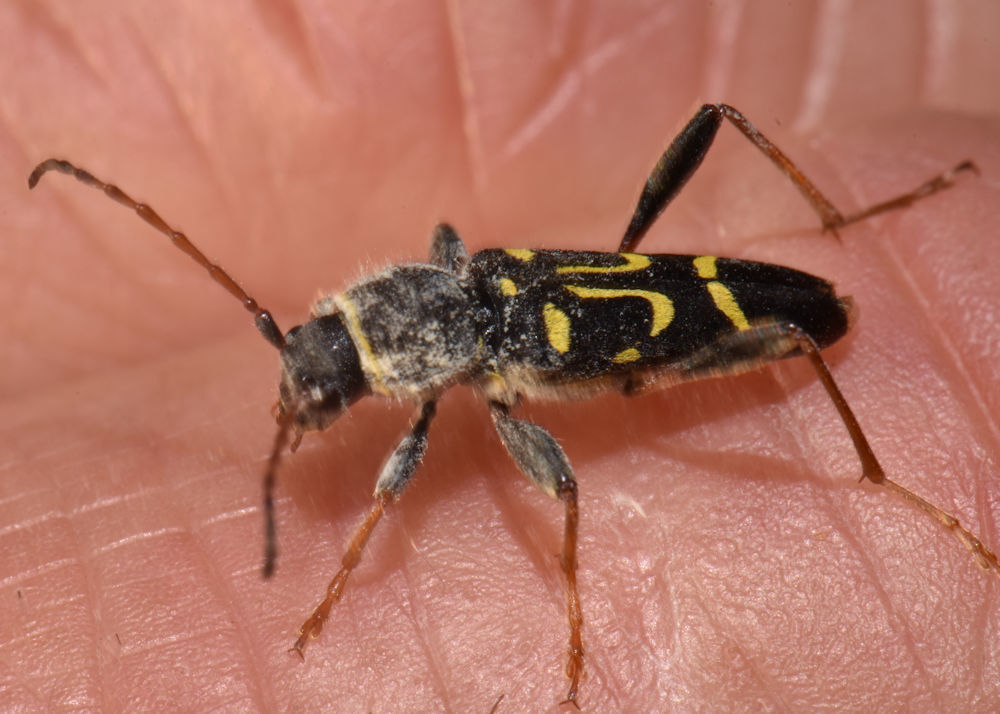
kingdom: Animalia
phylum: Arthropoda
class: Insecta
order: Coleoptera
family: Cerambycidae
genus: Clytus
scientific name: Clytus ruricola
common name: Round-necked longhorn beetle
